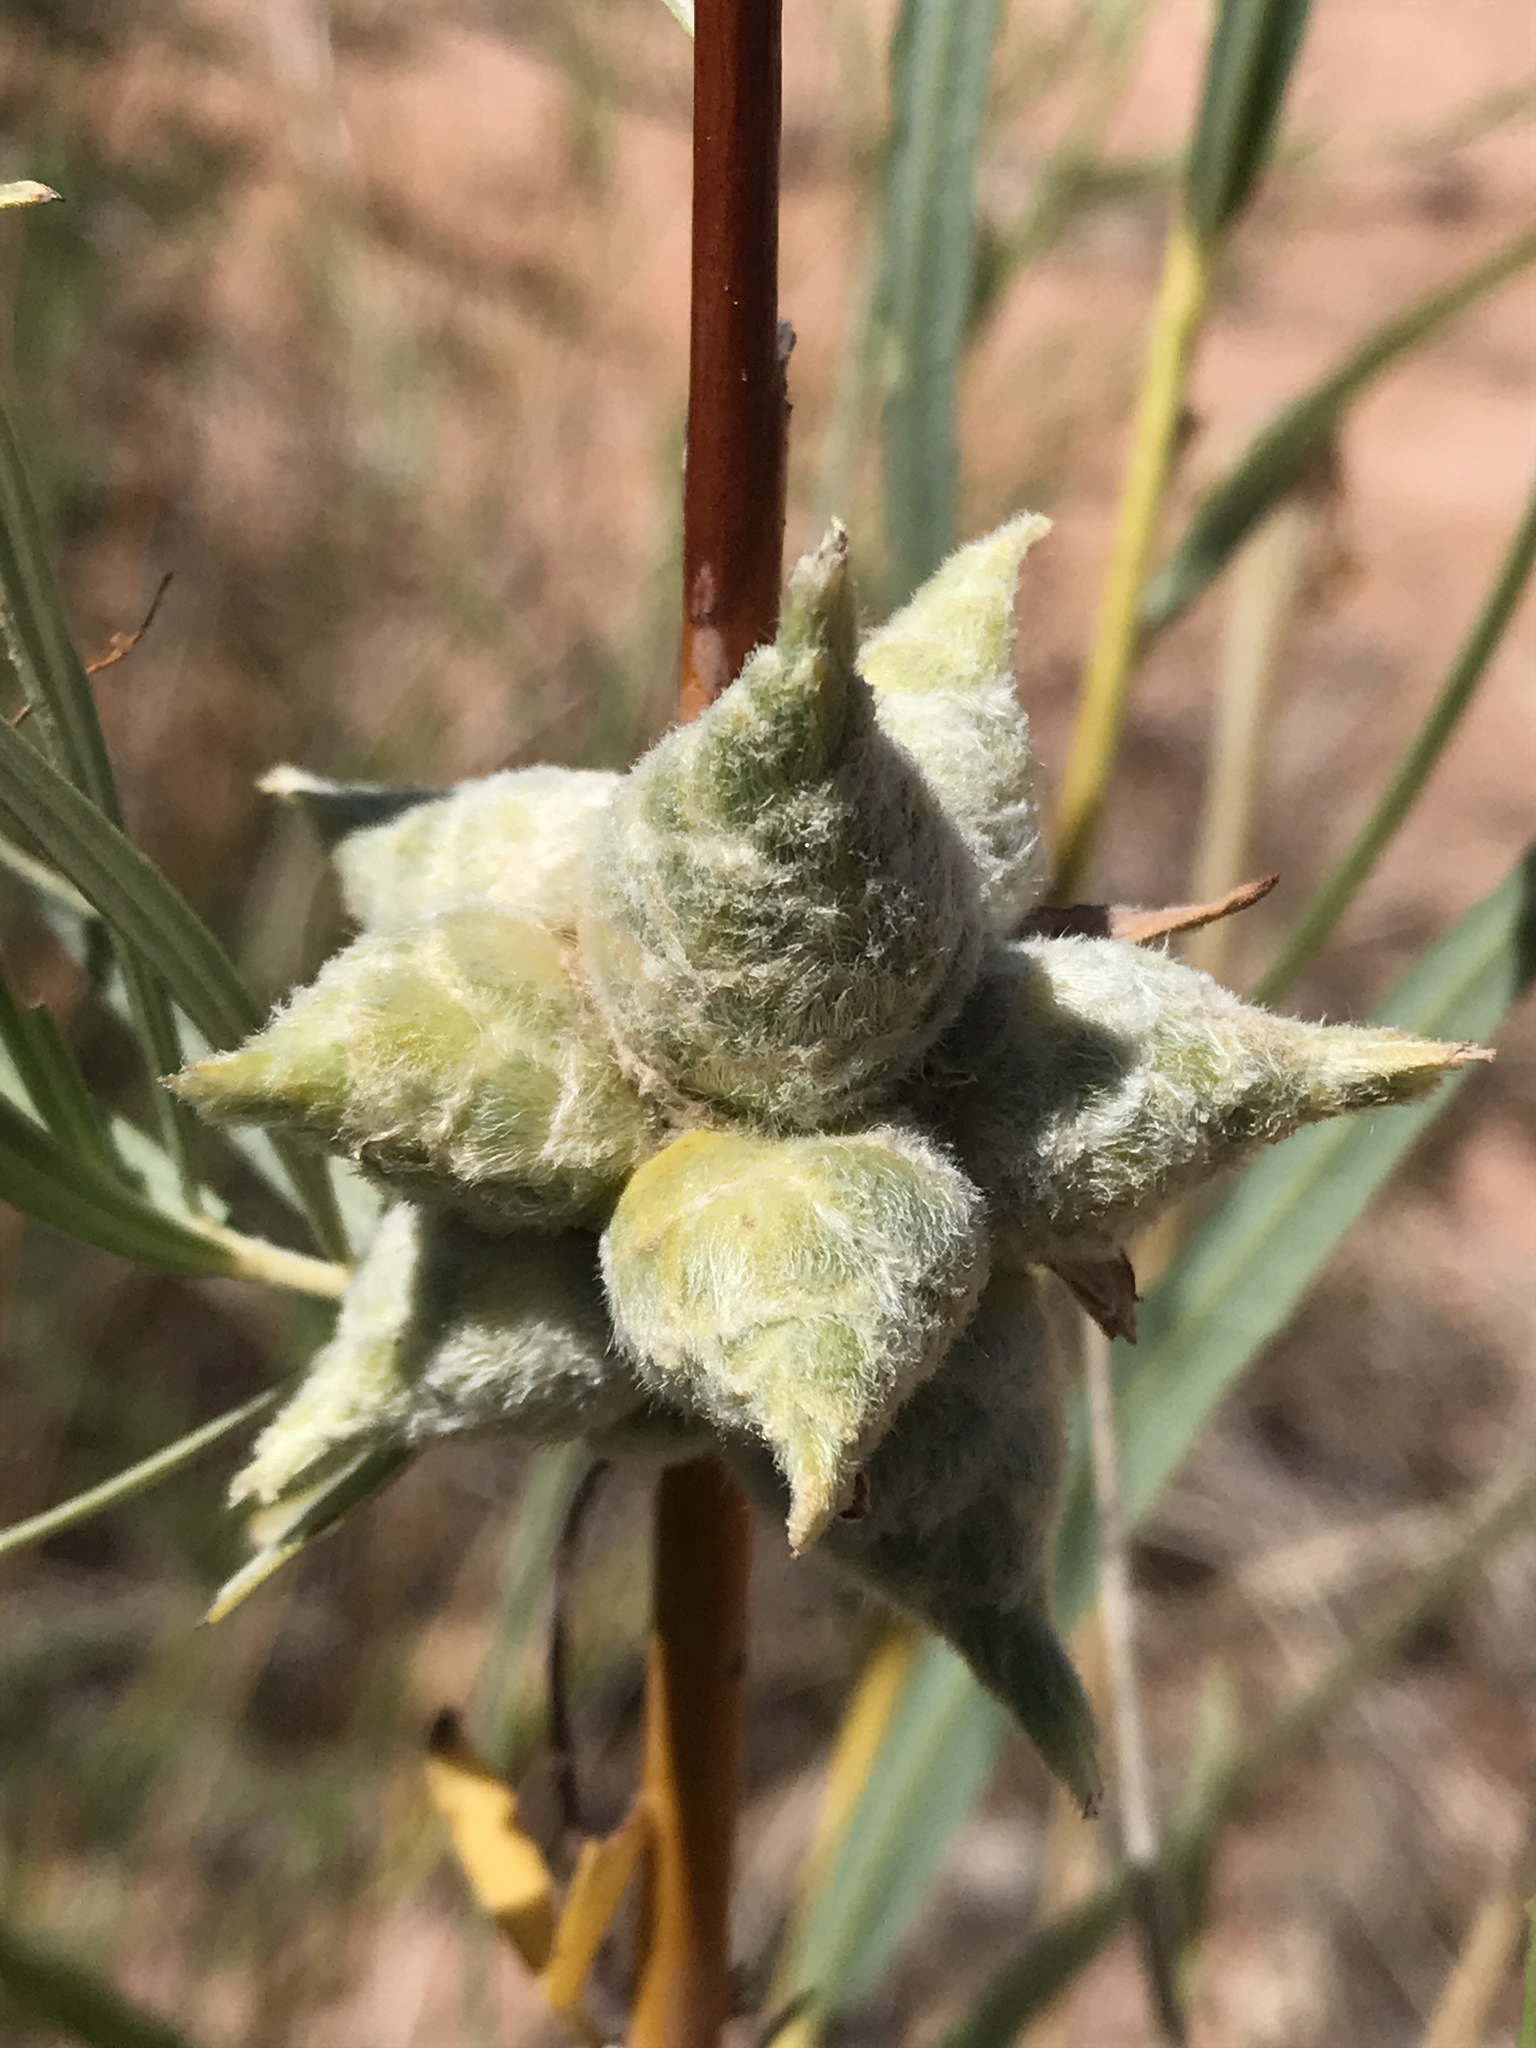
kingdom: Animalia
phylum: Arthropoda
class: Insecta
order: Diptera
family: Cecidomyiidae
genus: Rabdophaga
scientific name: Rabdophaga strobiloides
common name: Willow pinecone gall midge
